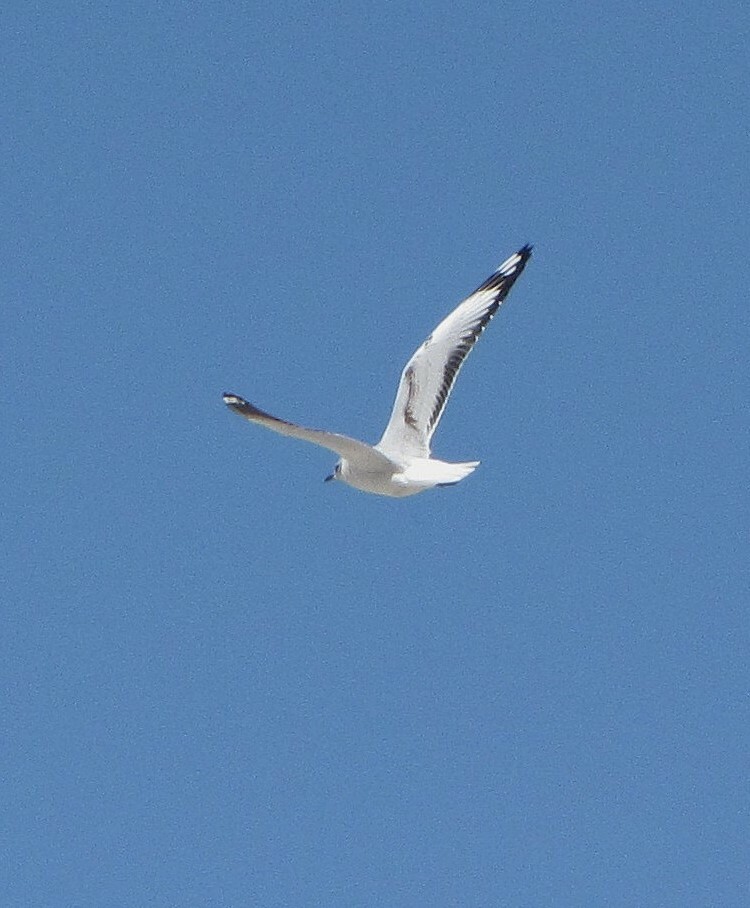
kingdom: Animalia
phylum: Chordata
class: Aves
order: Charadriiformes
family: Laridae
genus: Chroicocephalus
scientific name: Chroicocephalus serranus
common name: Andean gull
